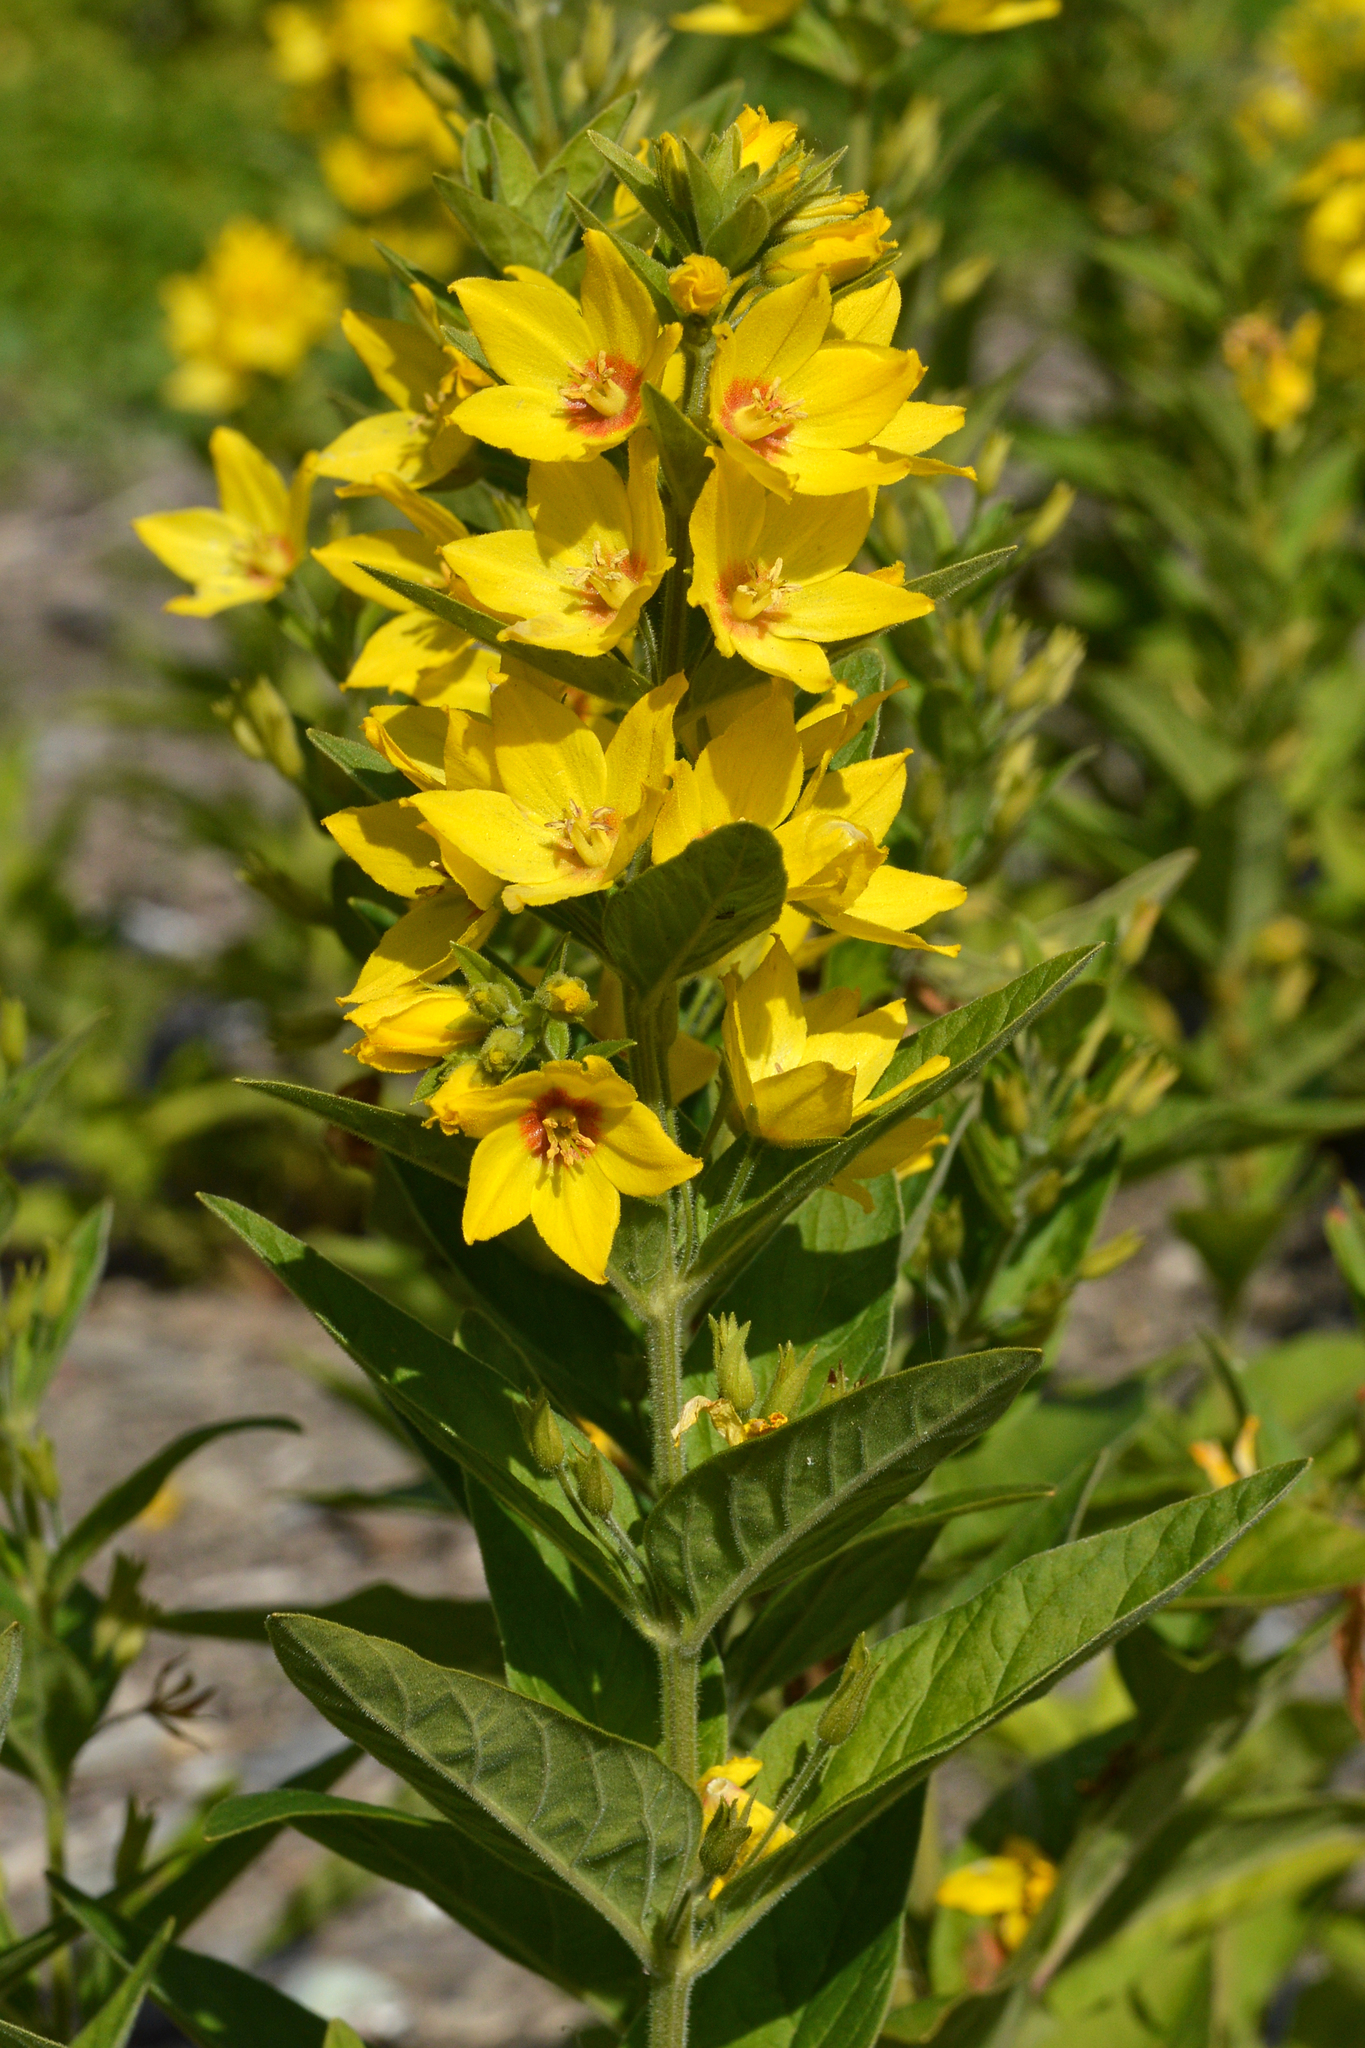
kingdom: Plantae
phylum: Tracheophyta
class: Magnoliopsida
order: Ericales
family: Primulaceae
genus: Lysimachia
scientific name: Lysimachia punctata
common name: Dotted loosestrife
